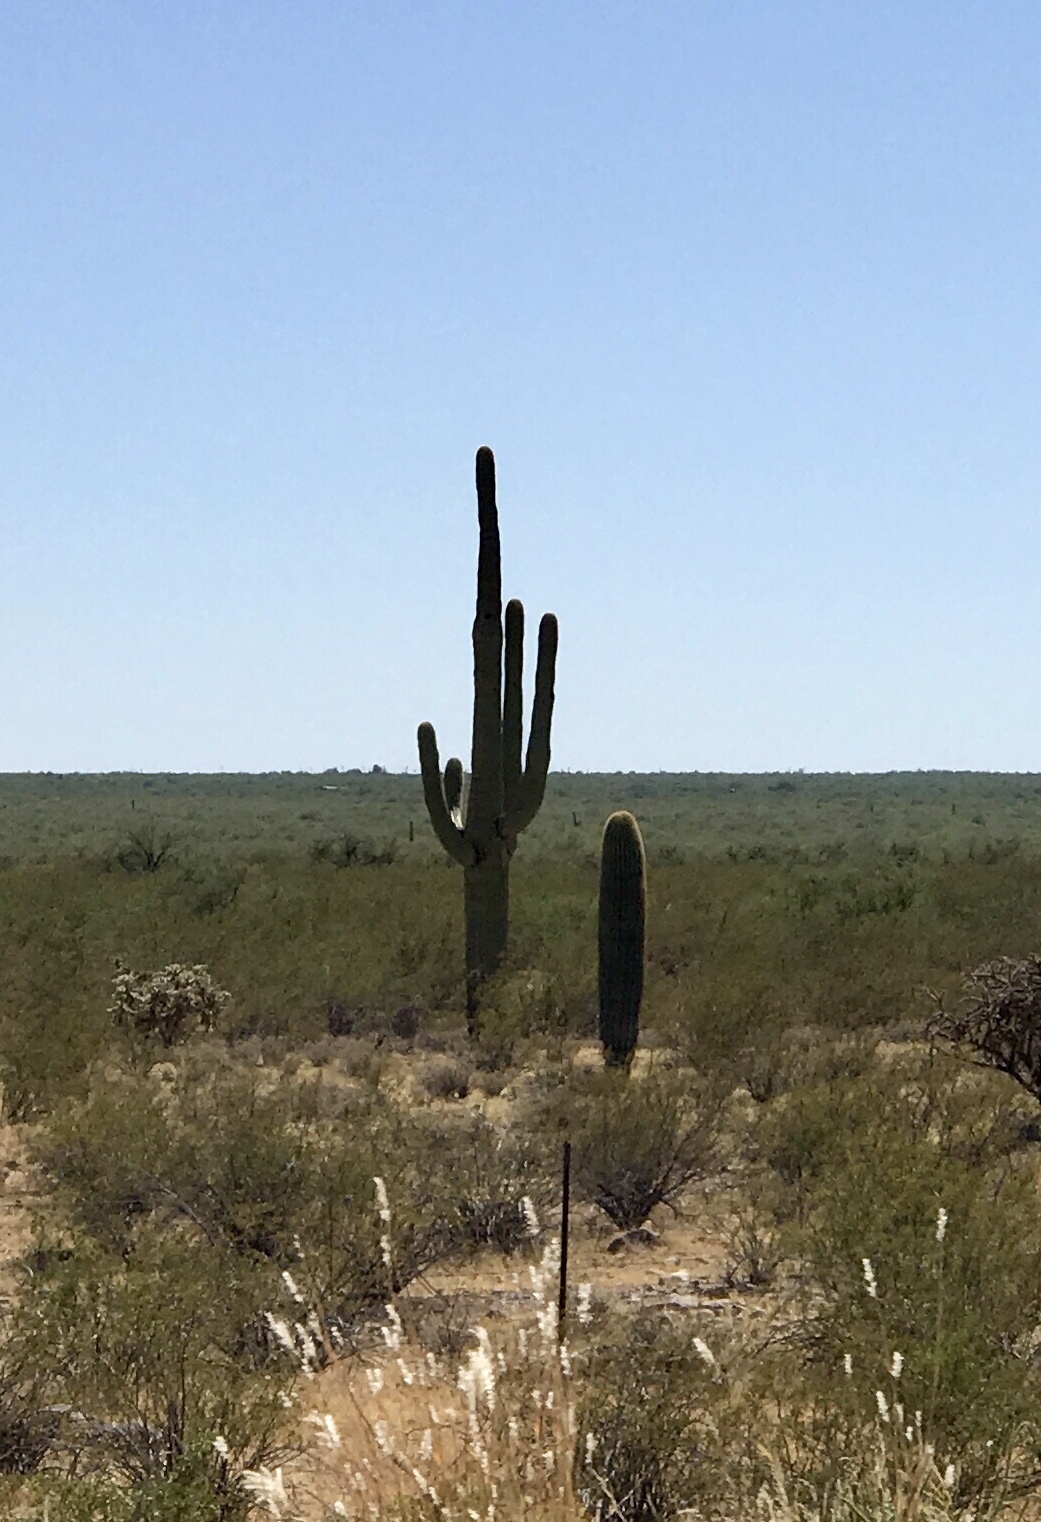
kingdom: Plantae
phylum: Tracheophyta
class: Magnoliopsida
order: Caryophyllales
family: Cactaceae
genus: Carnegiea
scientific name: Carnegiea gigantea
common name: Saguaro
